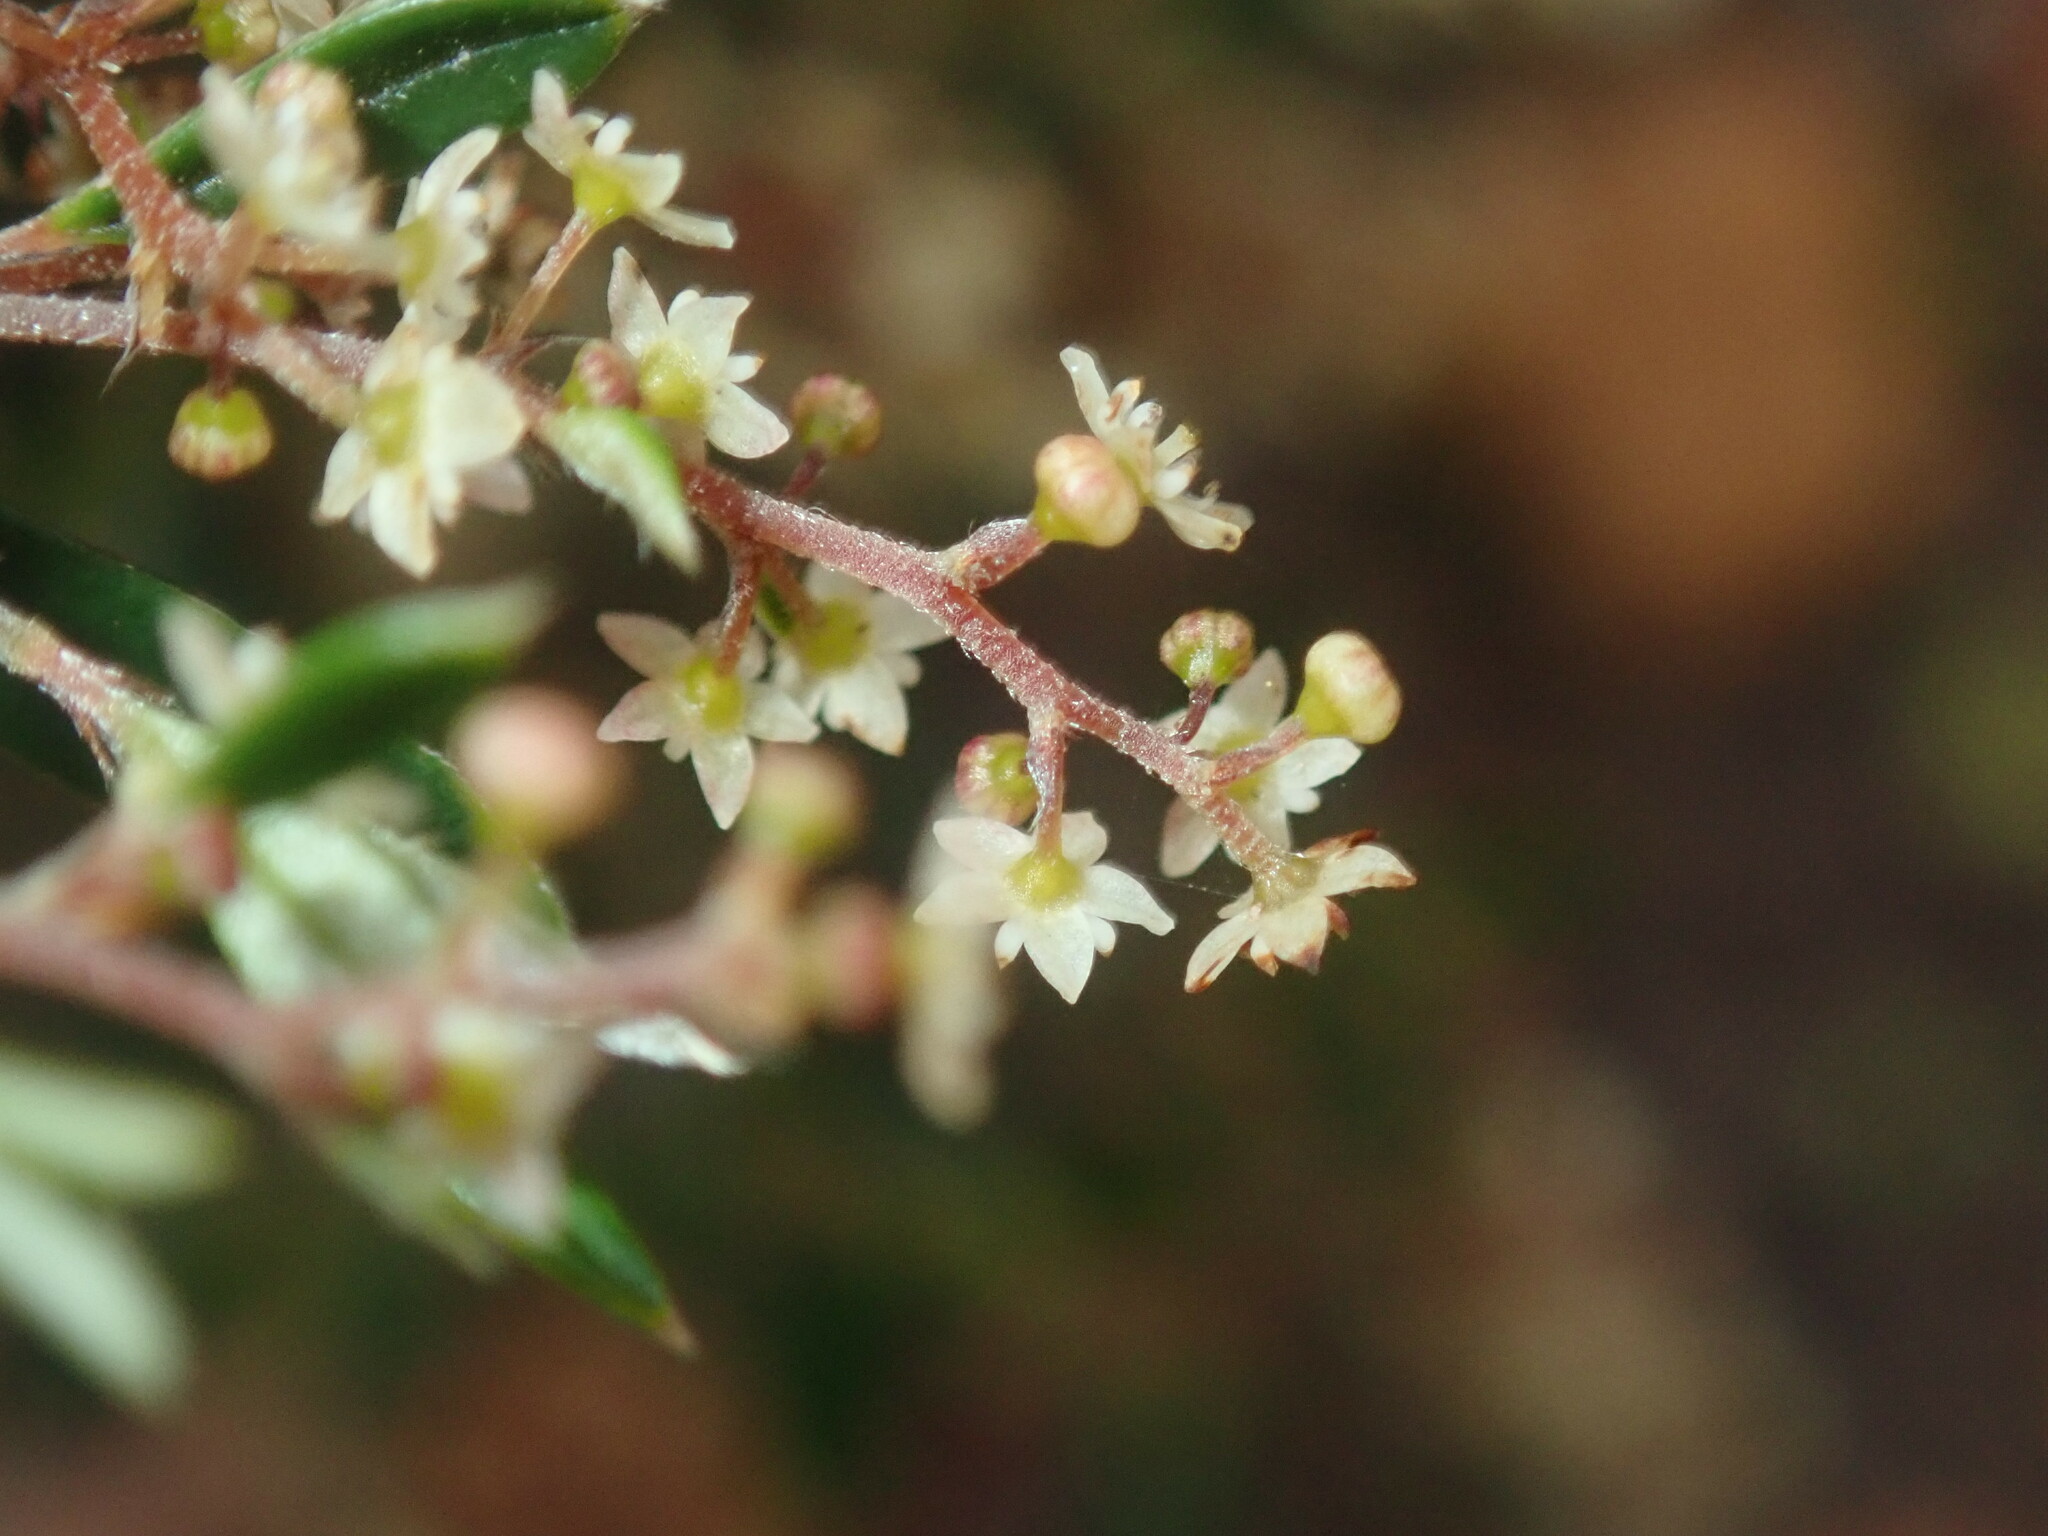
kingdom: Plantae
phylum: Tracheophyta
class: Magnoliopsida
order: Rosales
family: Rhamnaceae
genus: Trymalium
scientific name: Trymalium ledifolium
